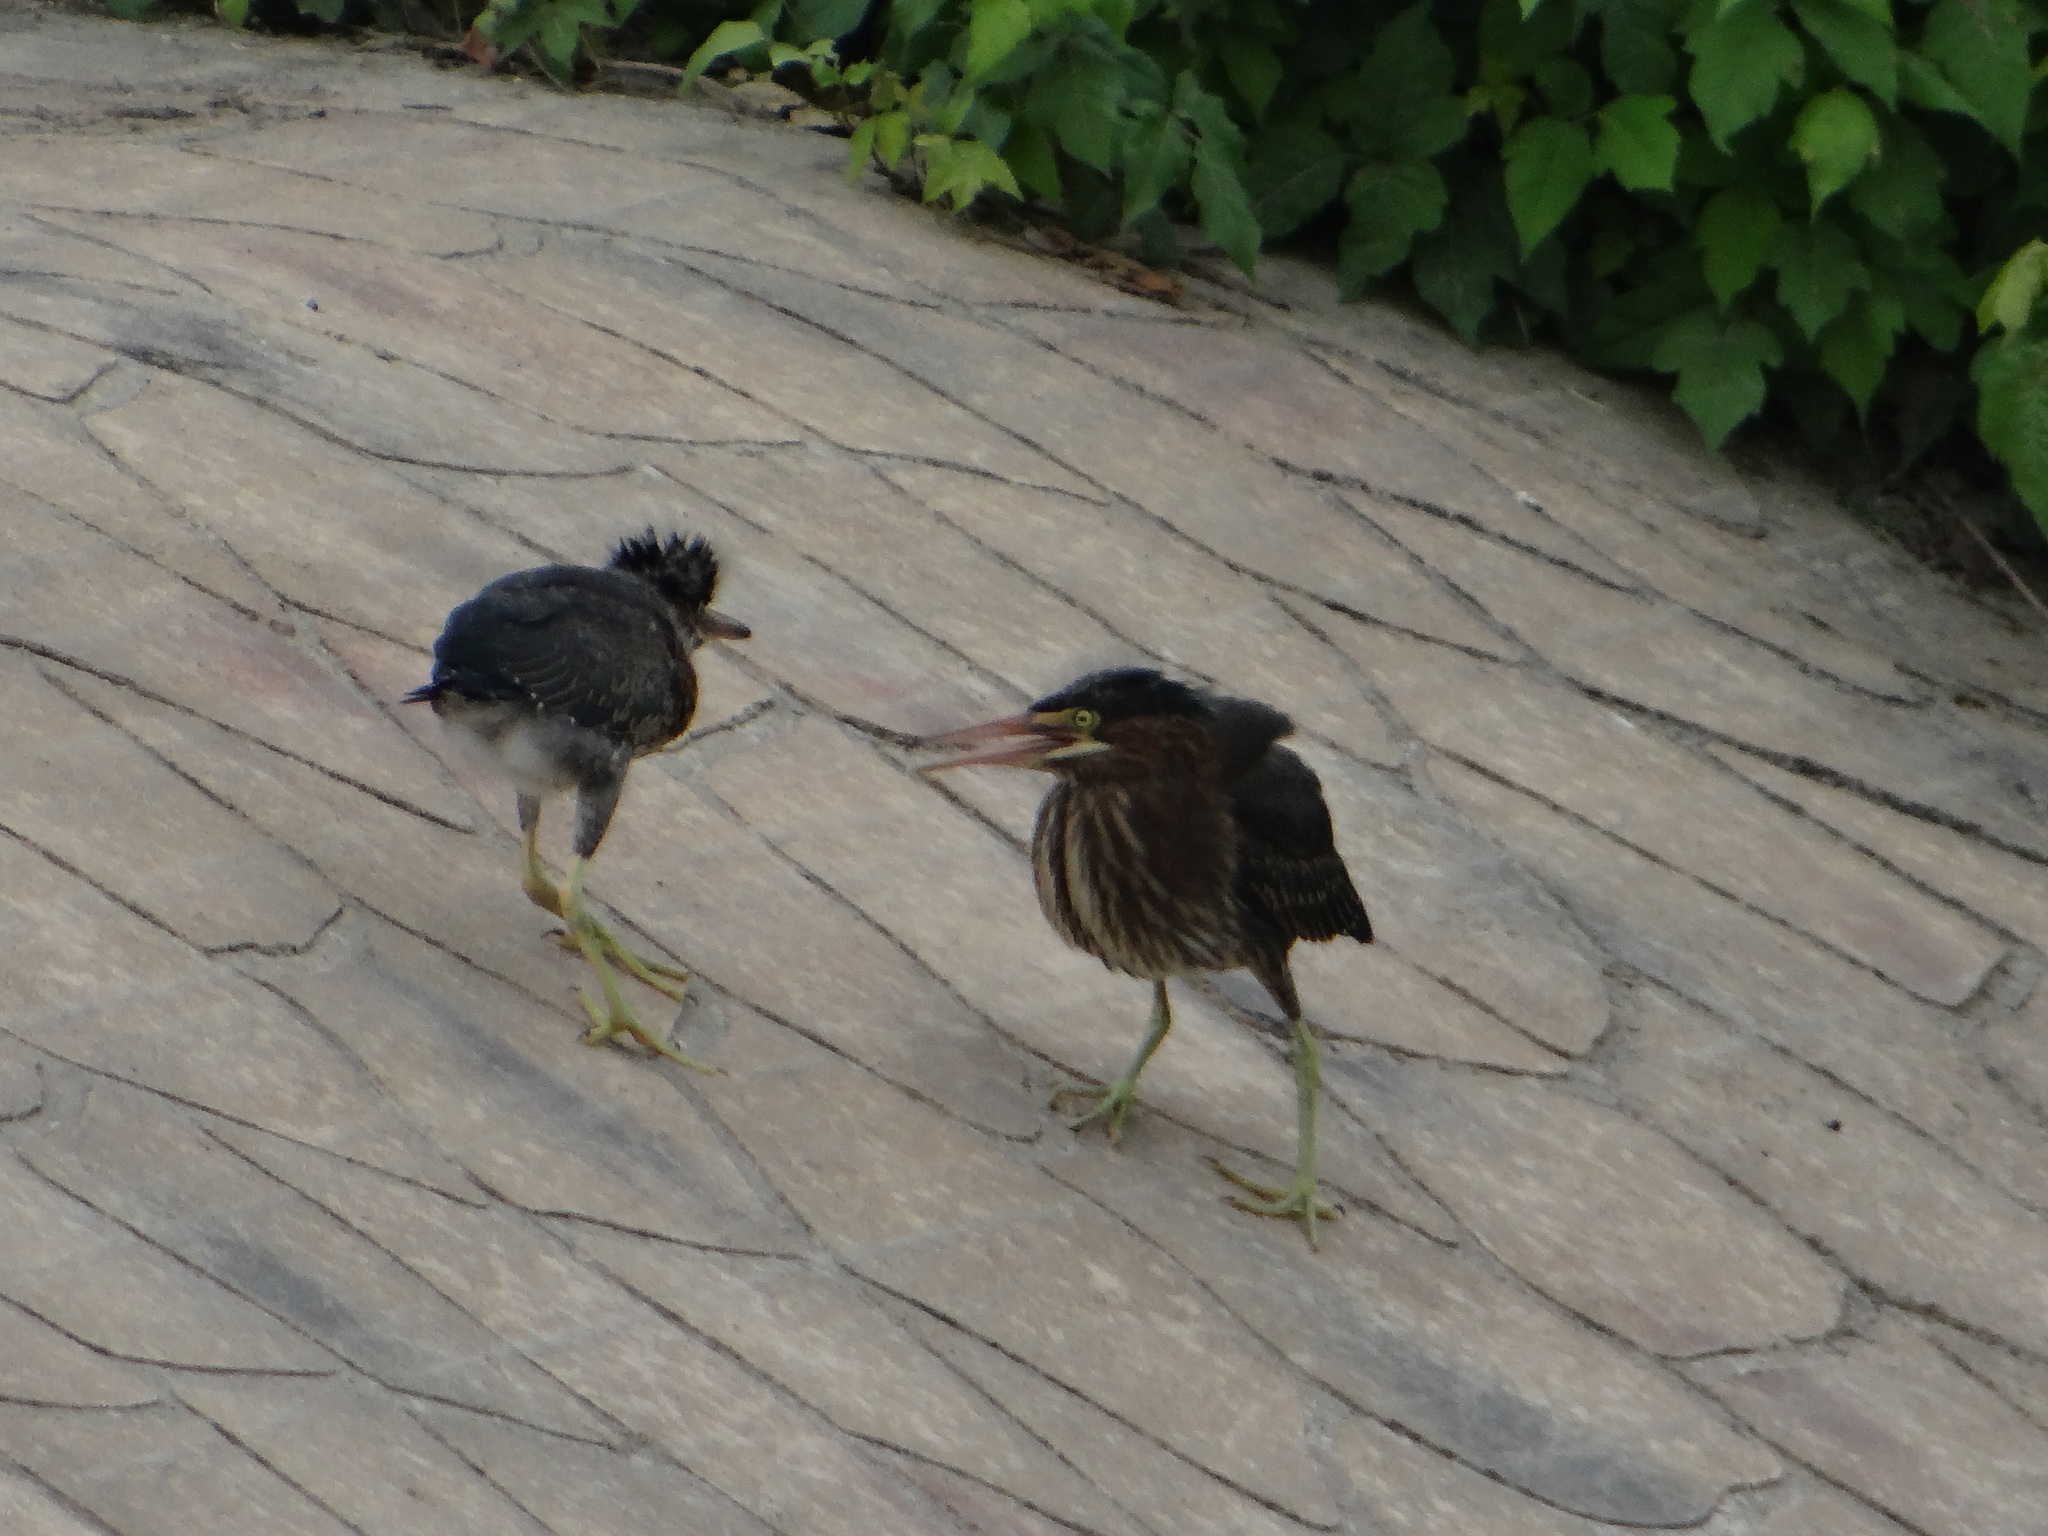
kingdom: Animalia
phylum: Chordata
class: Aves
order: Pelecaniformes
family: Ardeidae
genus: Butorides
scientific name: Butorides virescens
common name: Green heron
